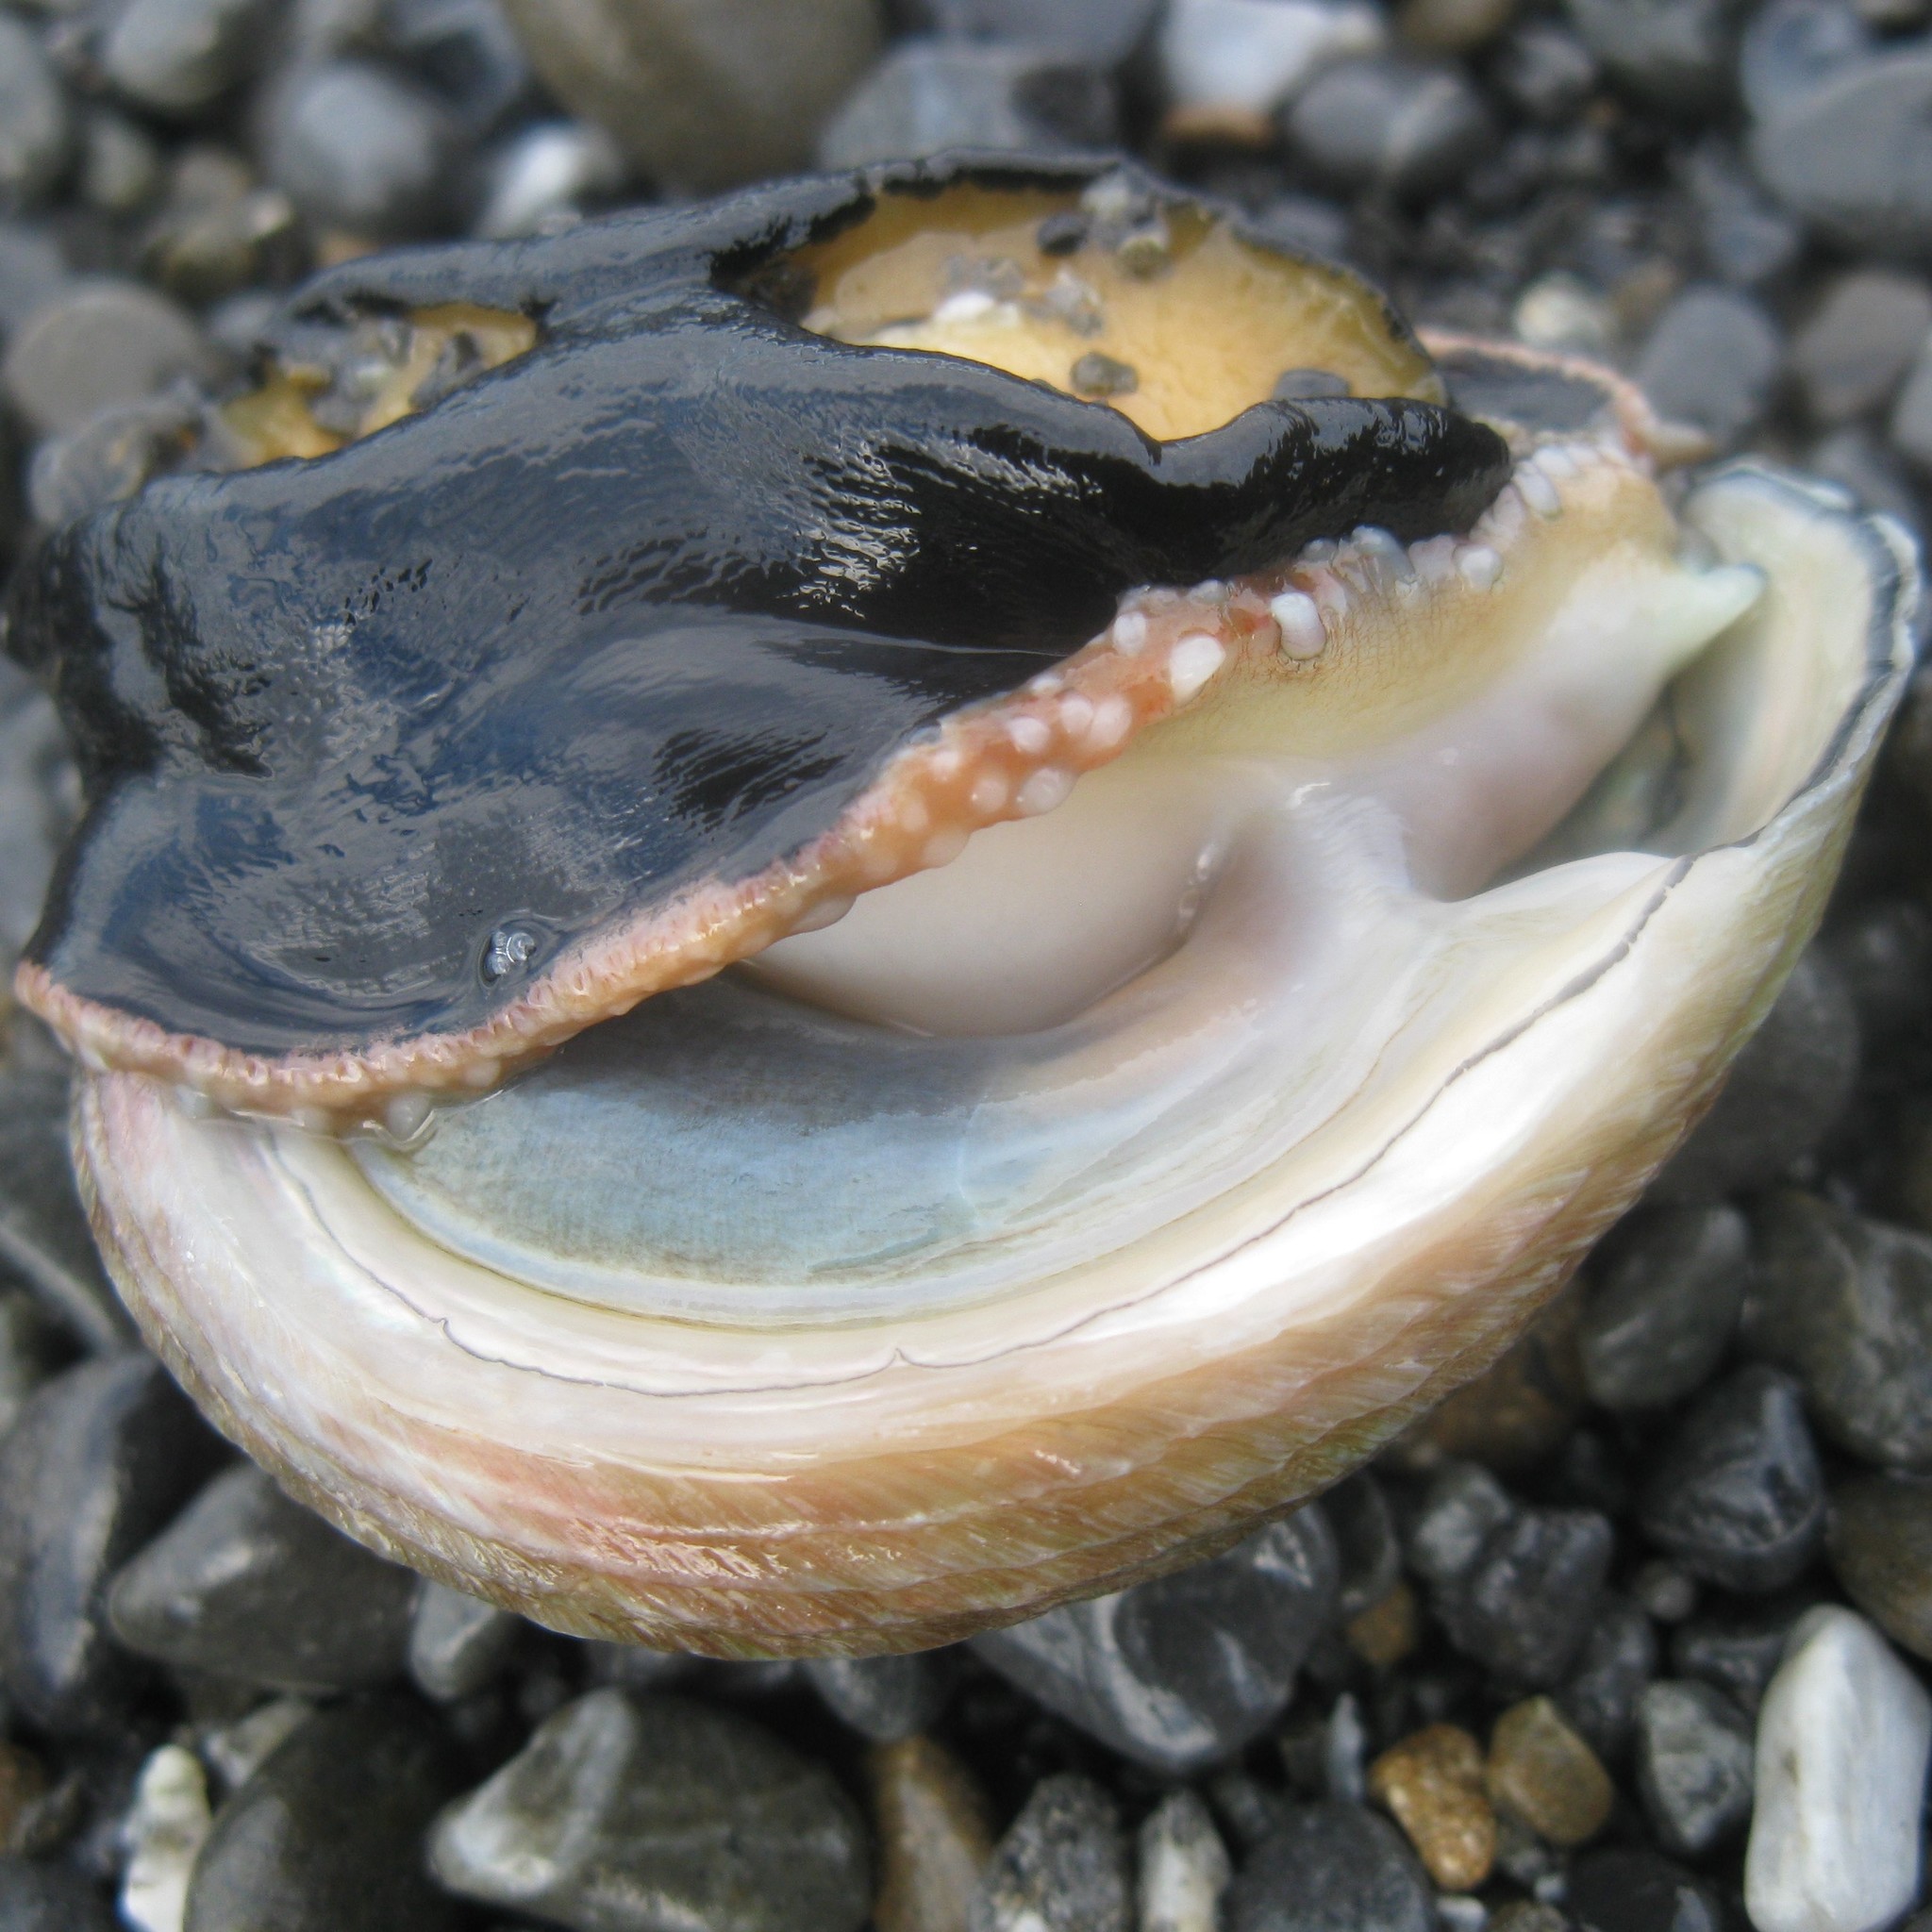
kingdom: Animalia
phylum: Mollusca
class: Gastropoda
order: Lepetellida
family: Haliotidae
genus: Haliotis
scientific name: Haliotis australis
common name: Silver abalone
